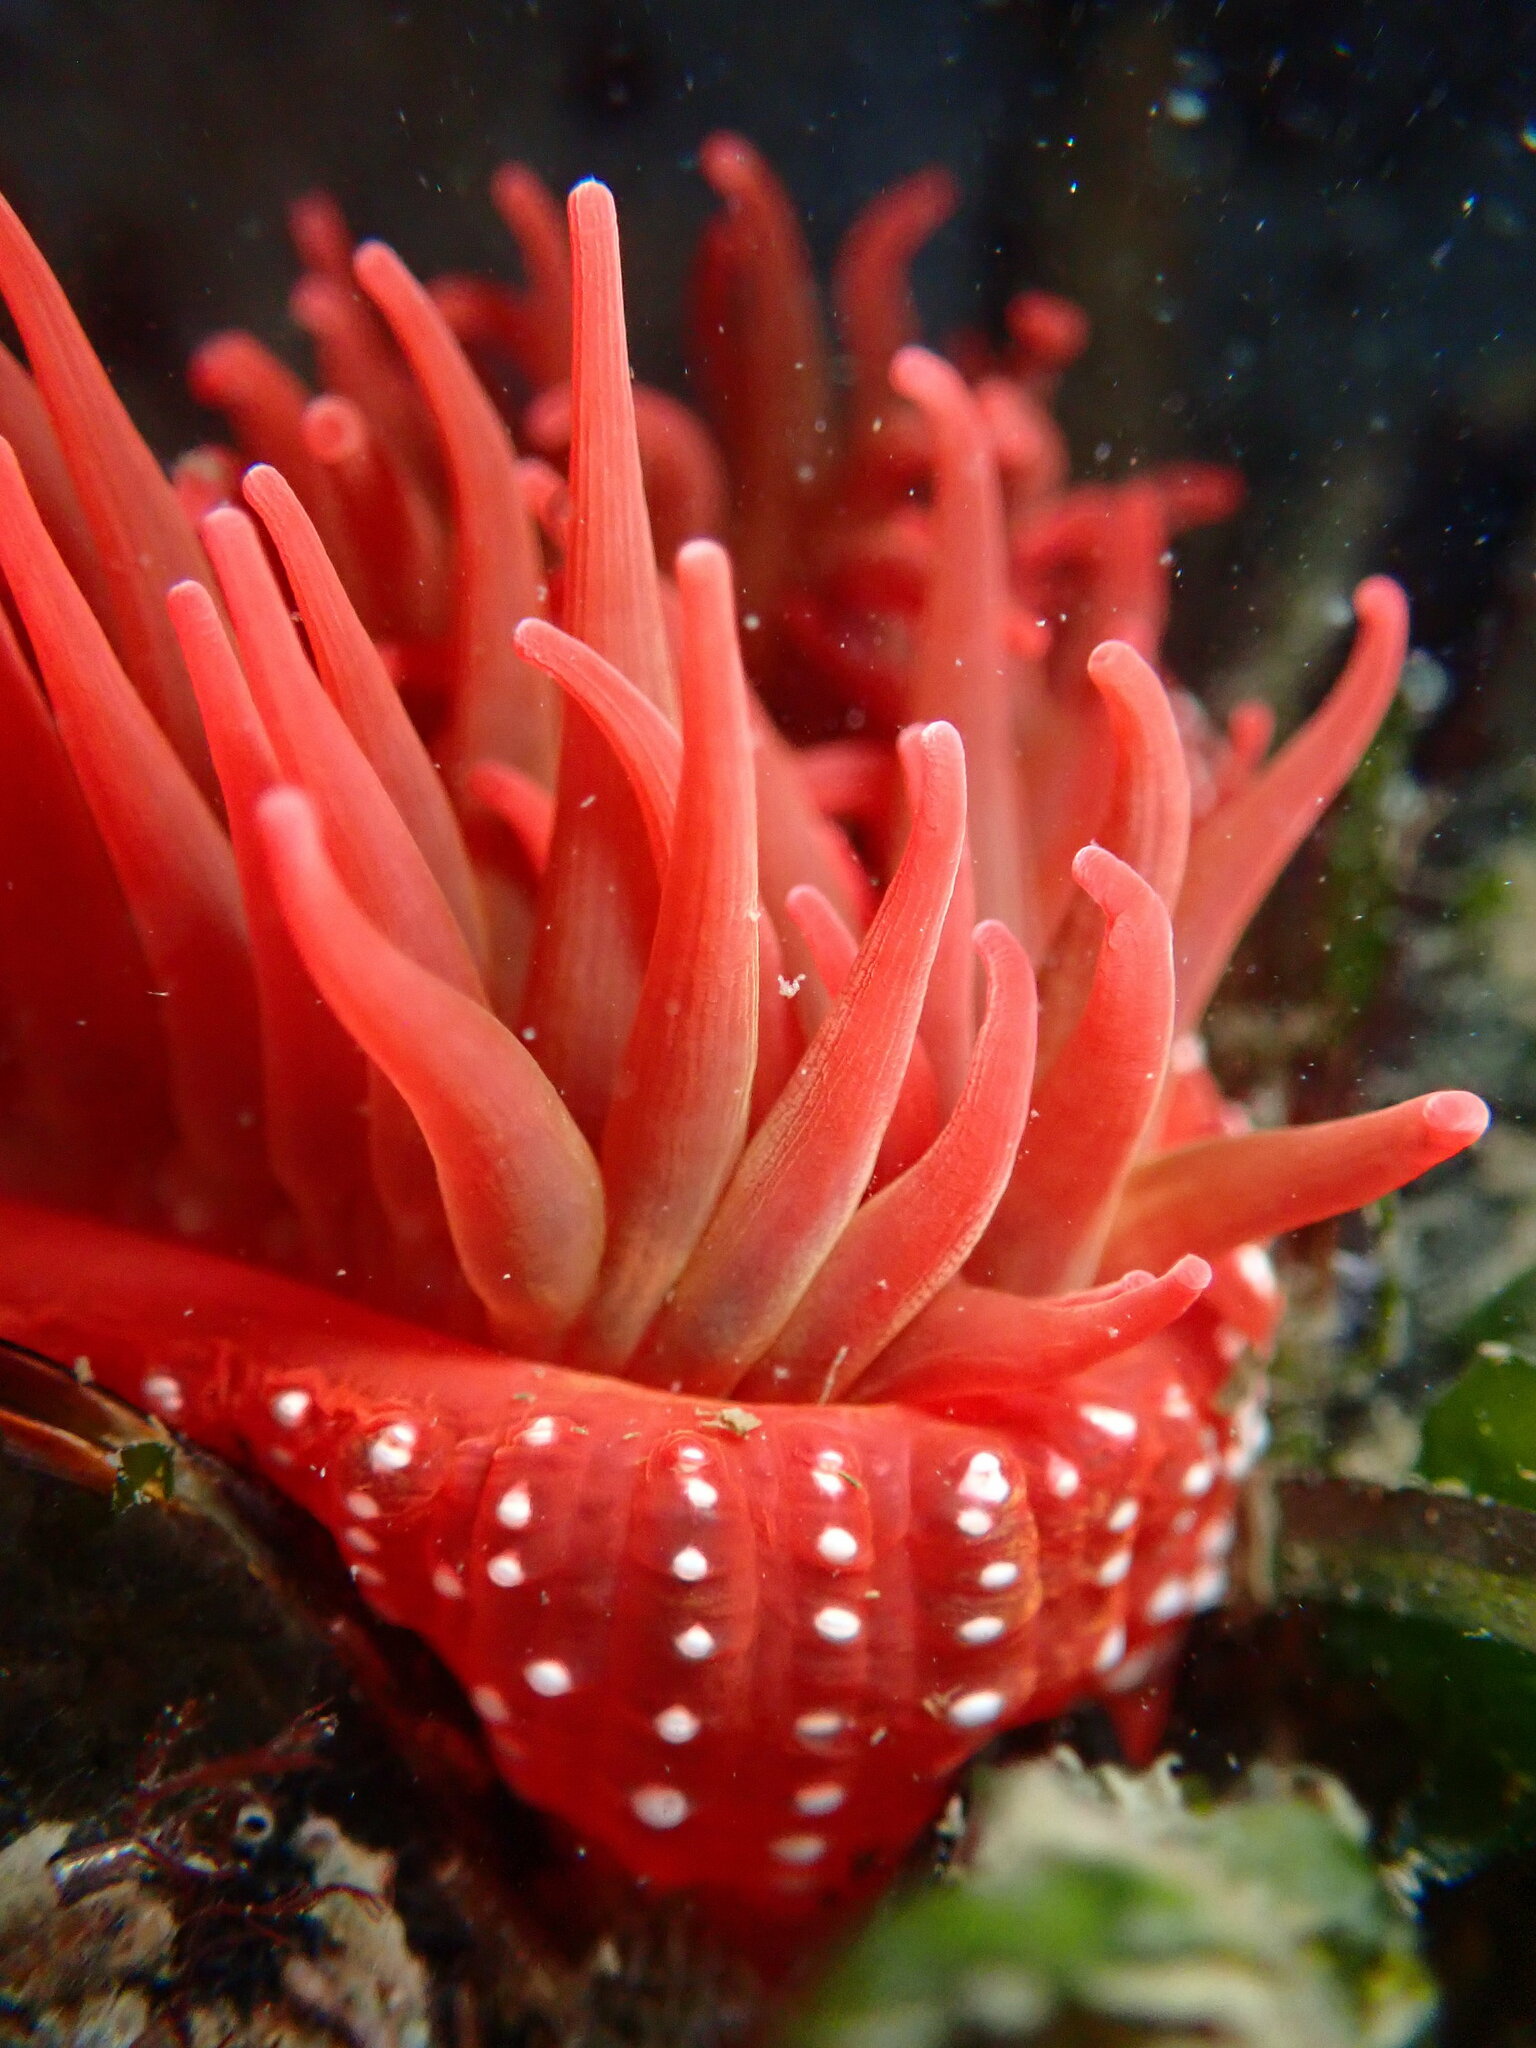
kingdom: Animalia
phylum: Cnidaria
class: Anthozoa
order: Actiniaria
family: Actiniidae
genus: Cribrinopsis
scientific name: Cribrinopsis albopunctata
